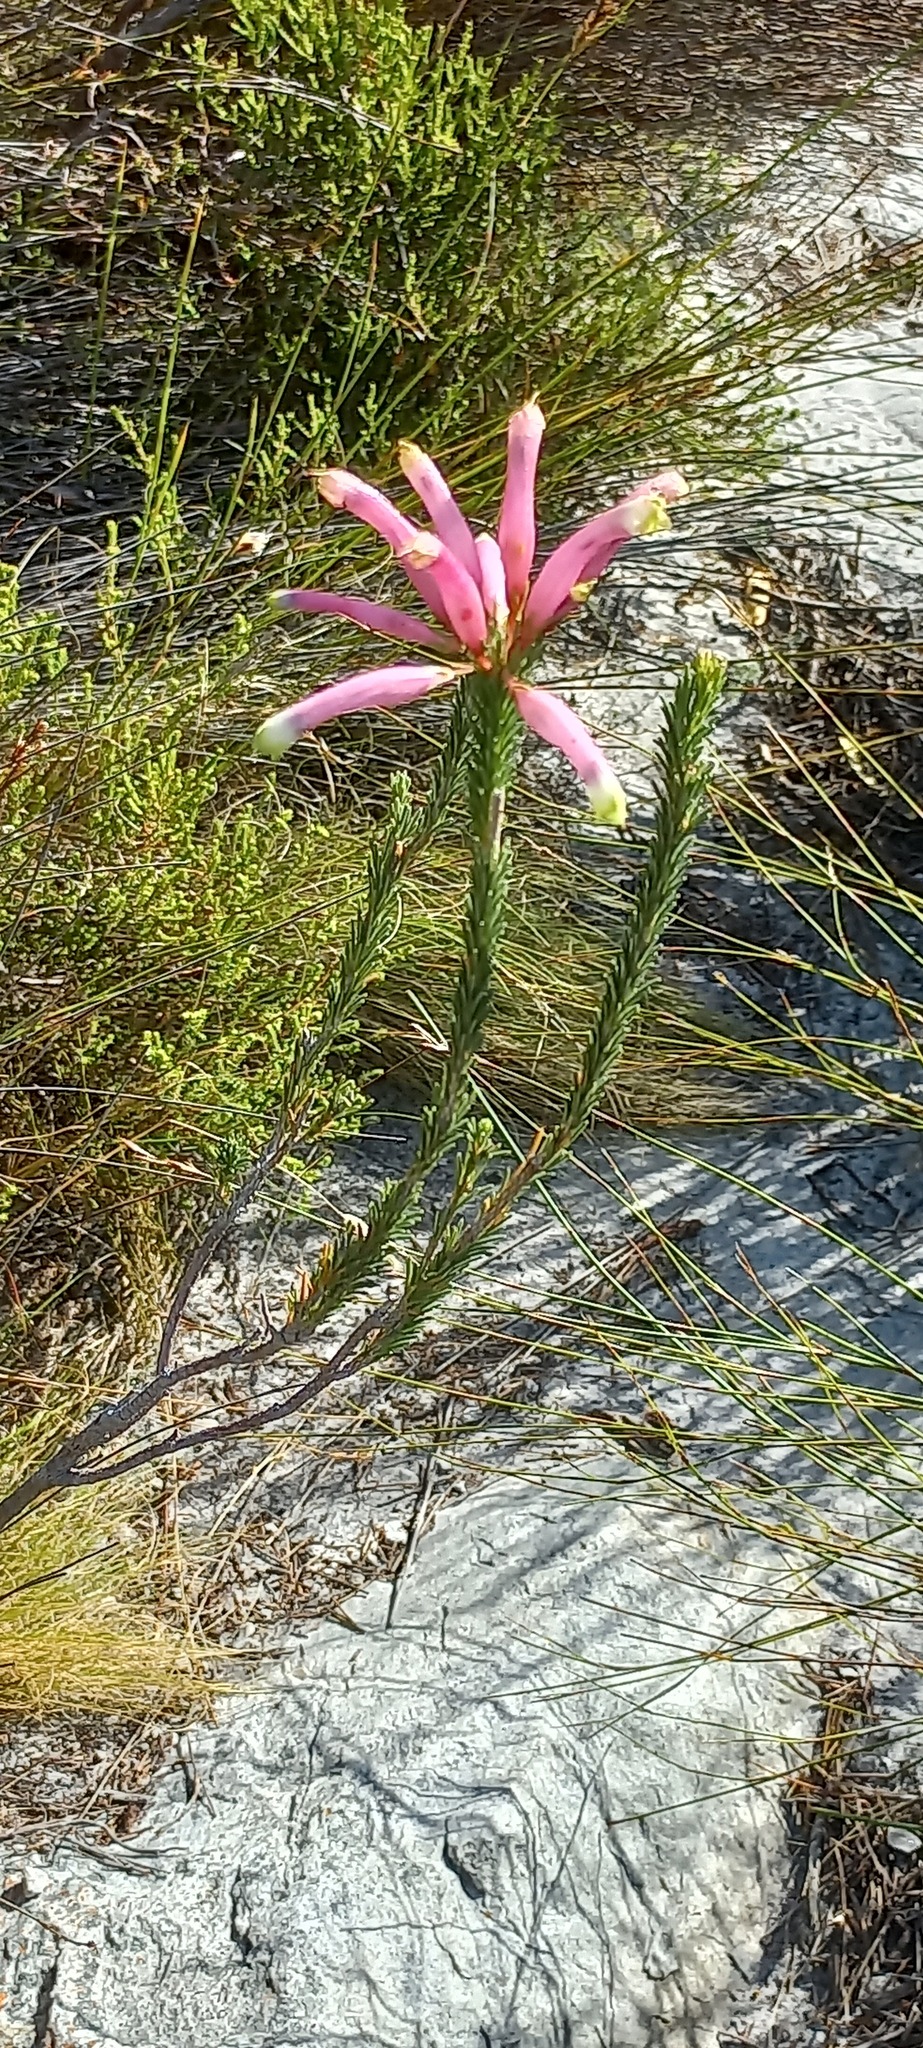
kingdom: Plantae
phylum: Tracheophyta
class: Magnoliopsida
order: Ericales
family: Ericaceae
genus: Erica
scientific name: Erica fascicularis
